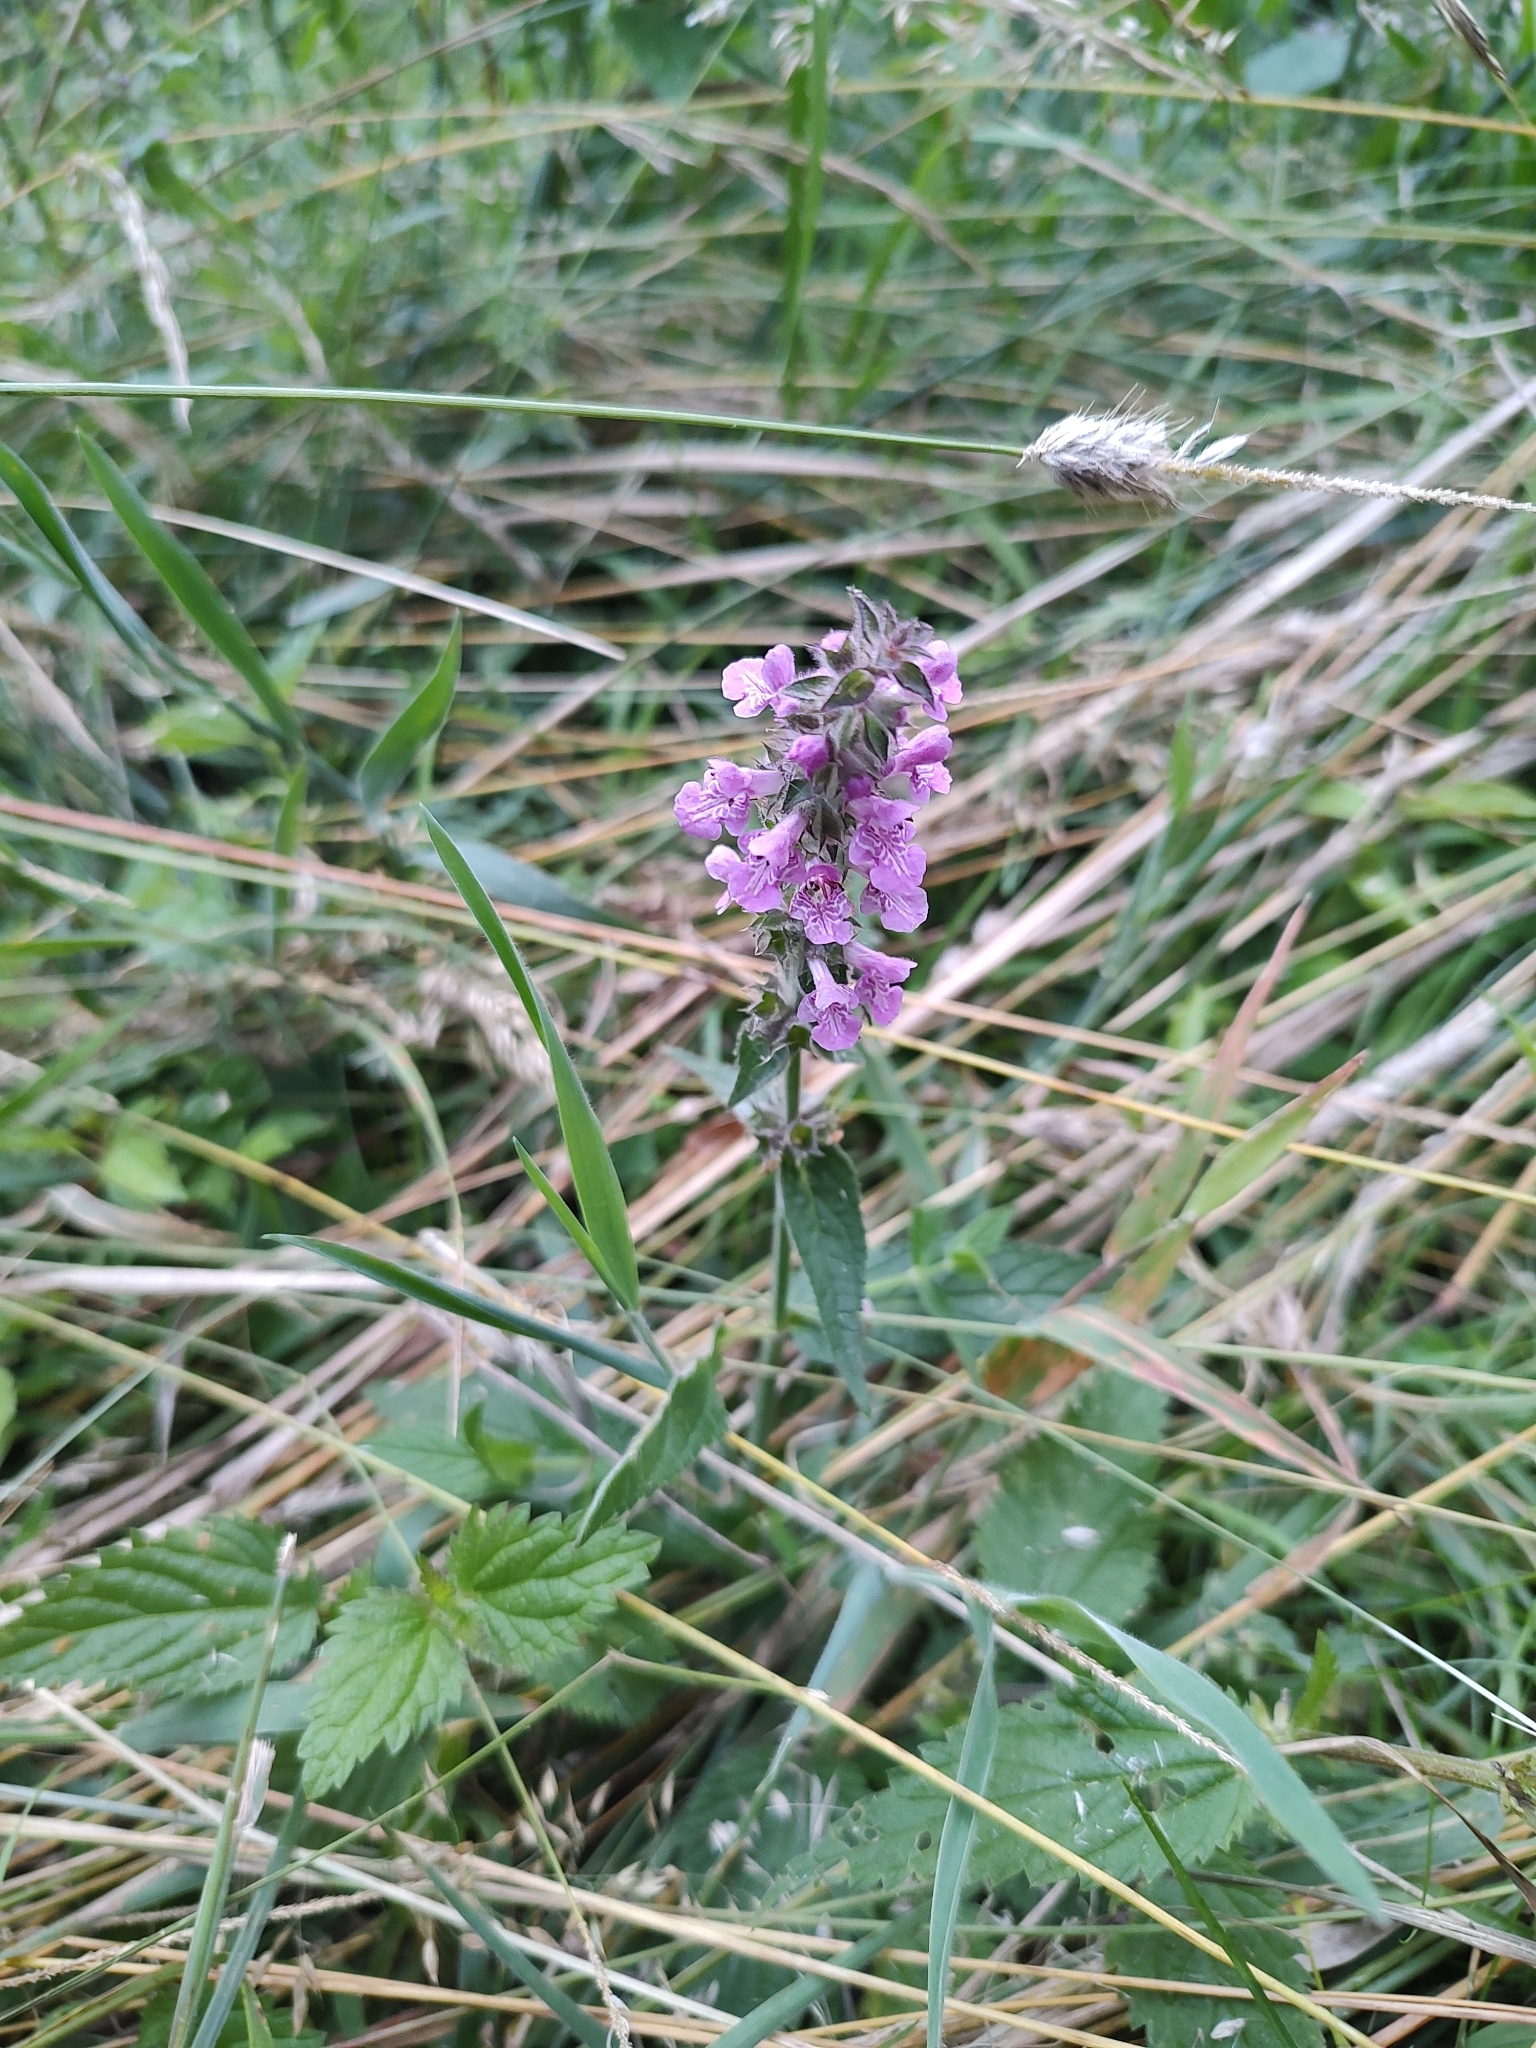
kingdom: Plantae
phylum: Tracheophyta
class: Magnoliopsida
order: Lamiales
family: Lamiaceae
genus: Stachys
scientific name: Stachys palustris
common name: Marsh woundwort
